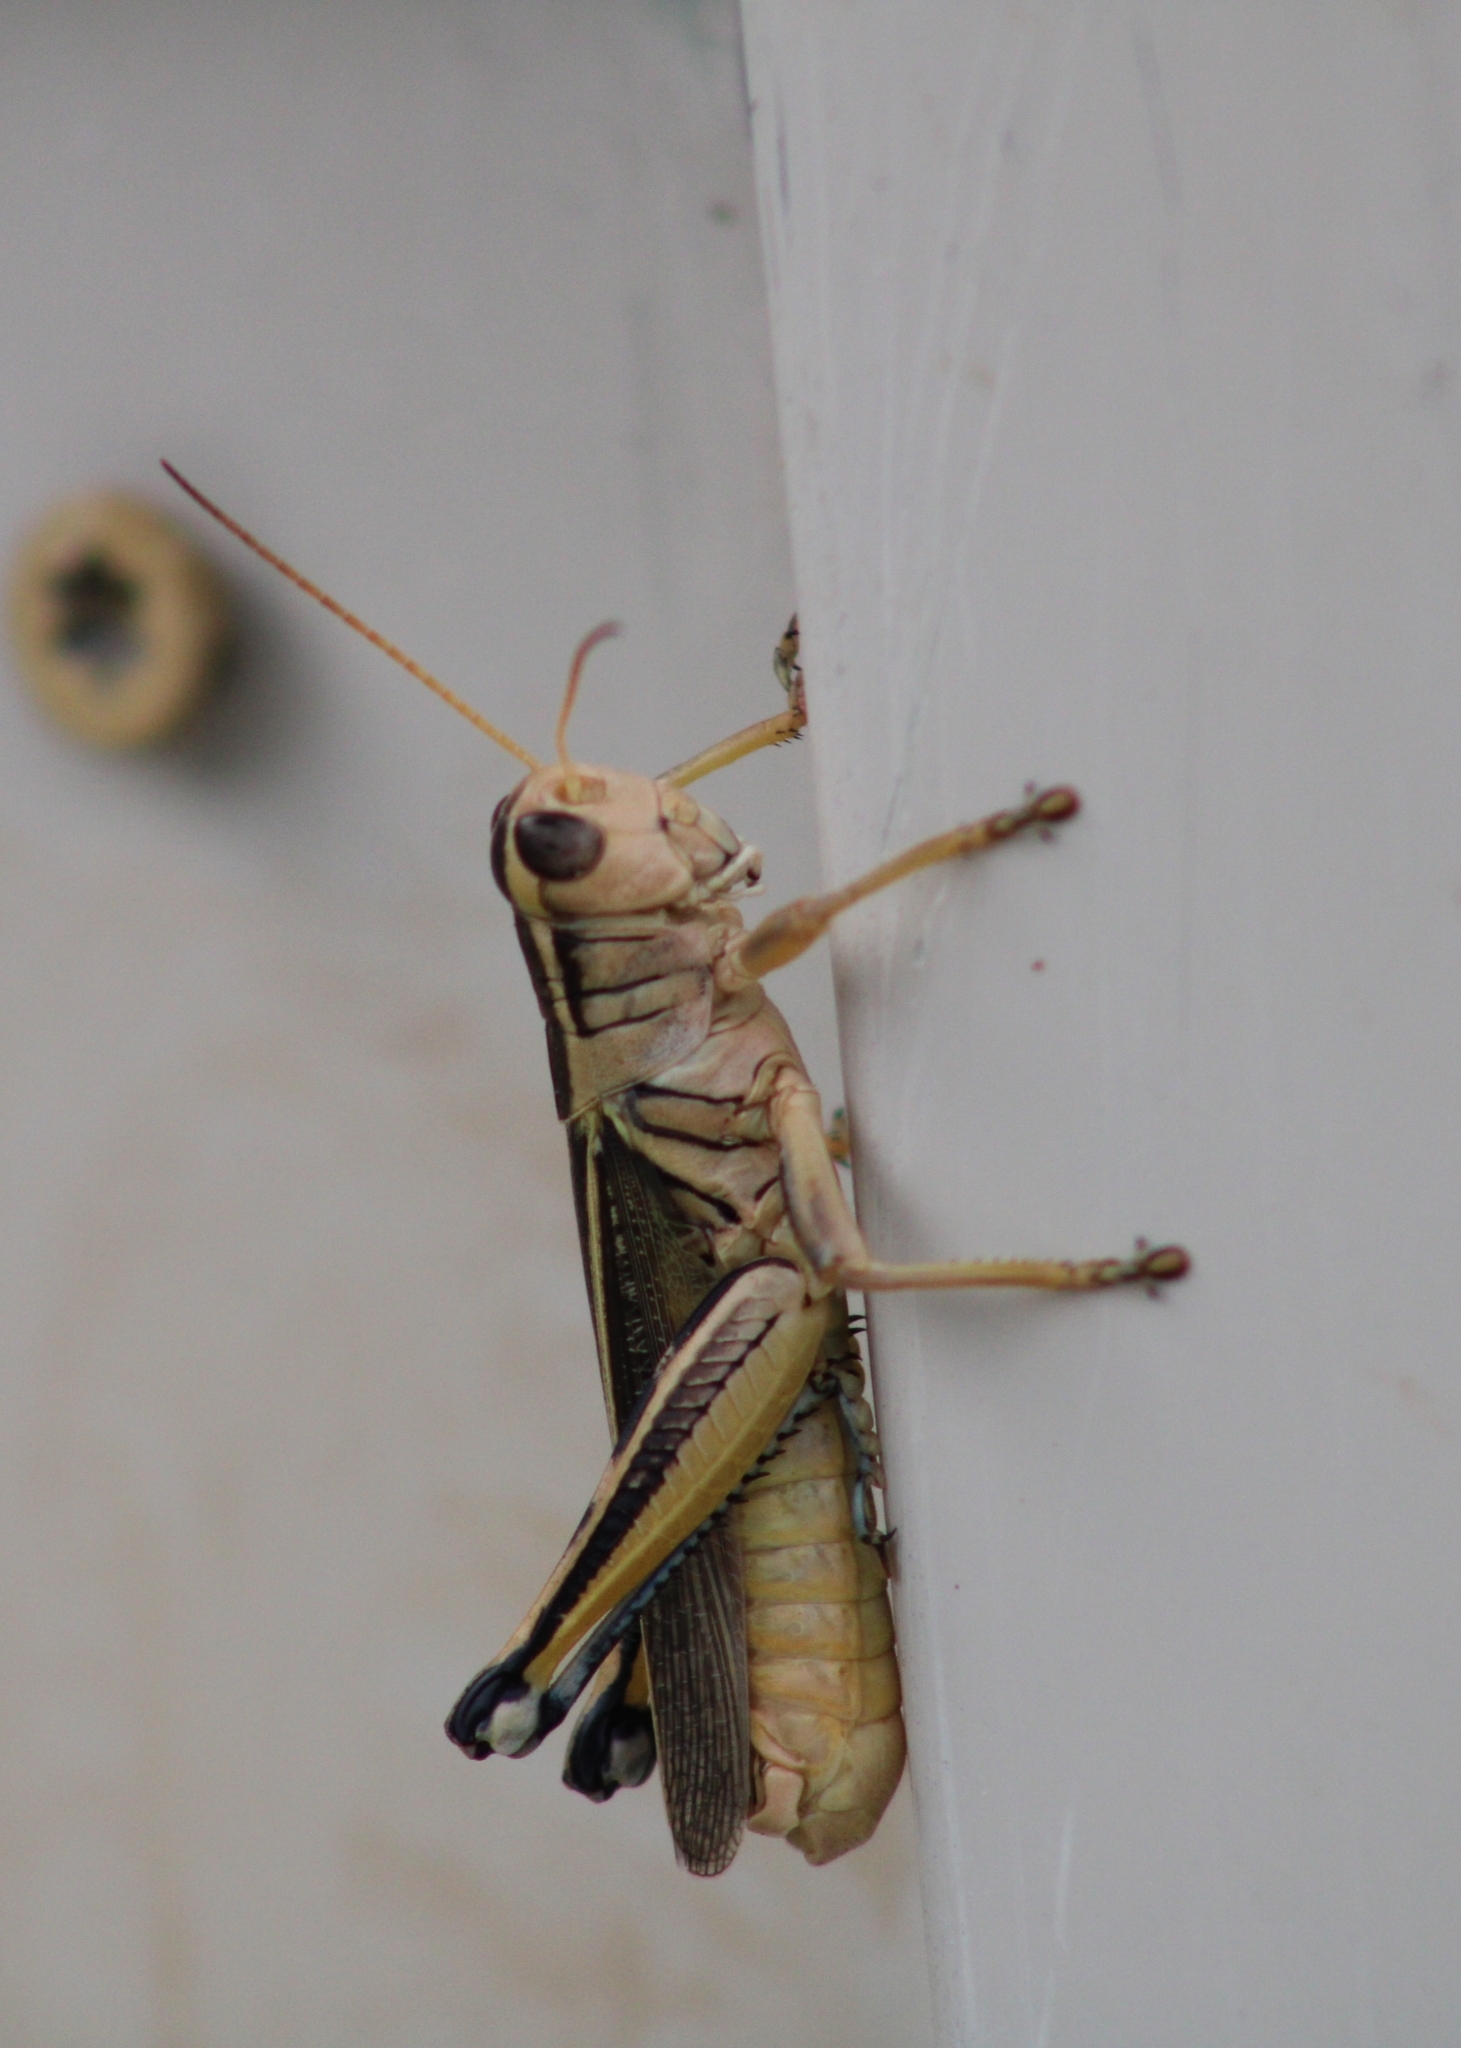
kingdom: Animalia
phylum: Arthropoda
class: Insecta
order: Orthoptera
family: Acrididae
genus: Melanoplus
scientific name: Melanoplus bivittatus
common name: Two-striped grasshopper
